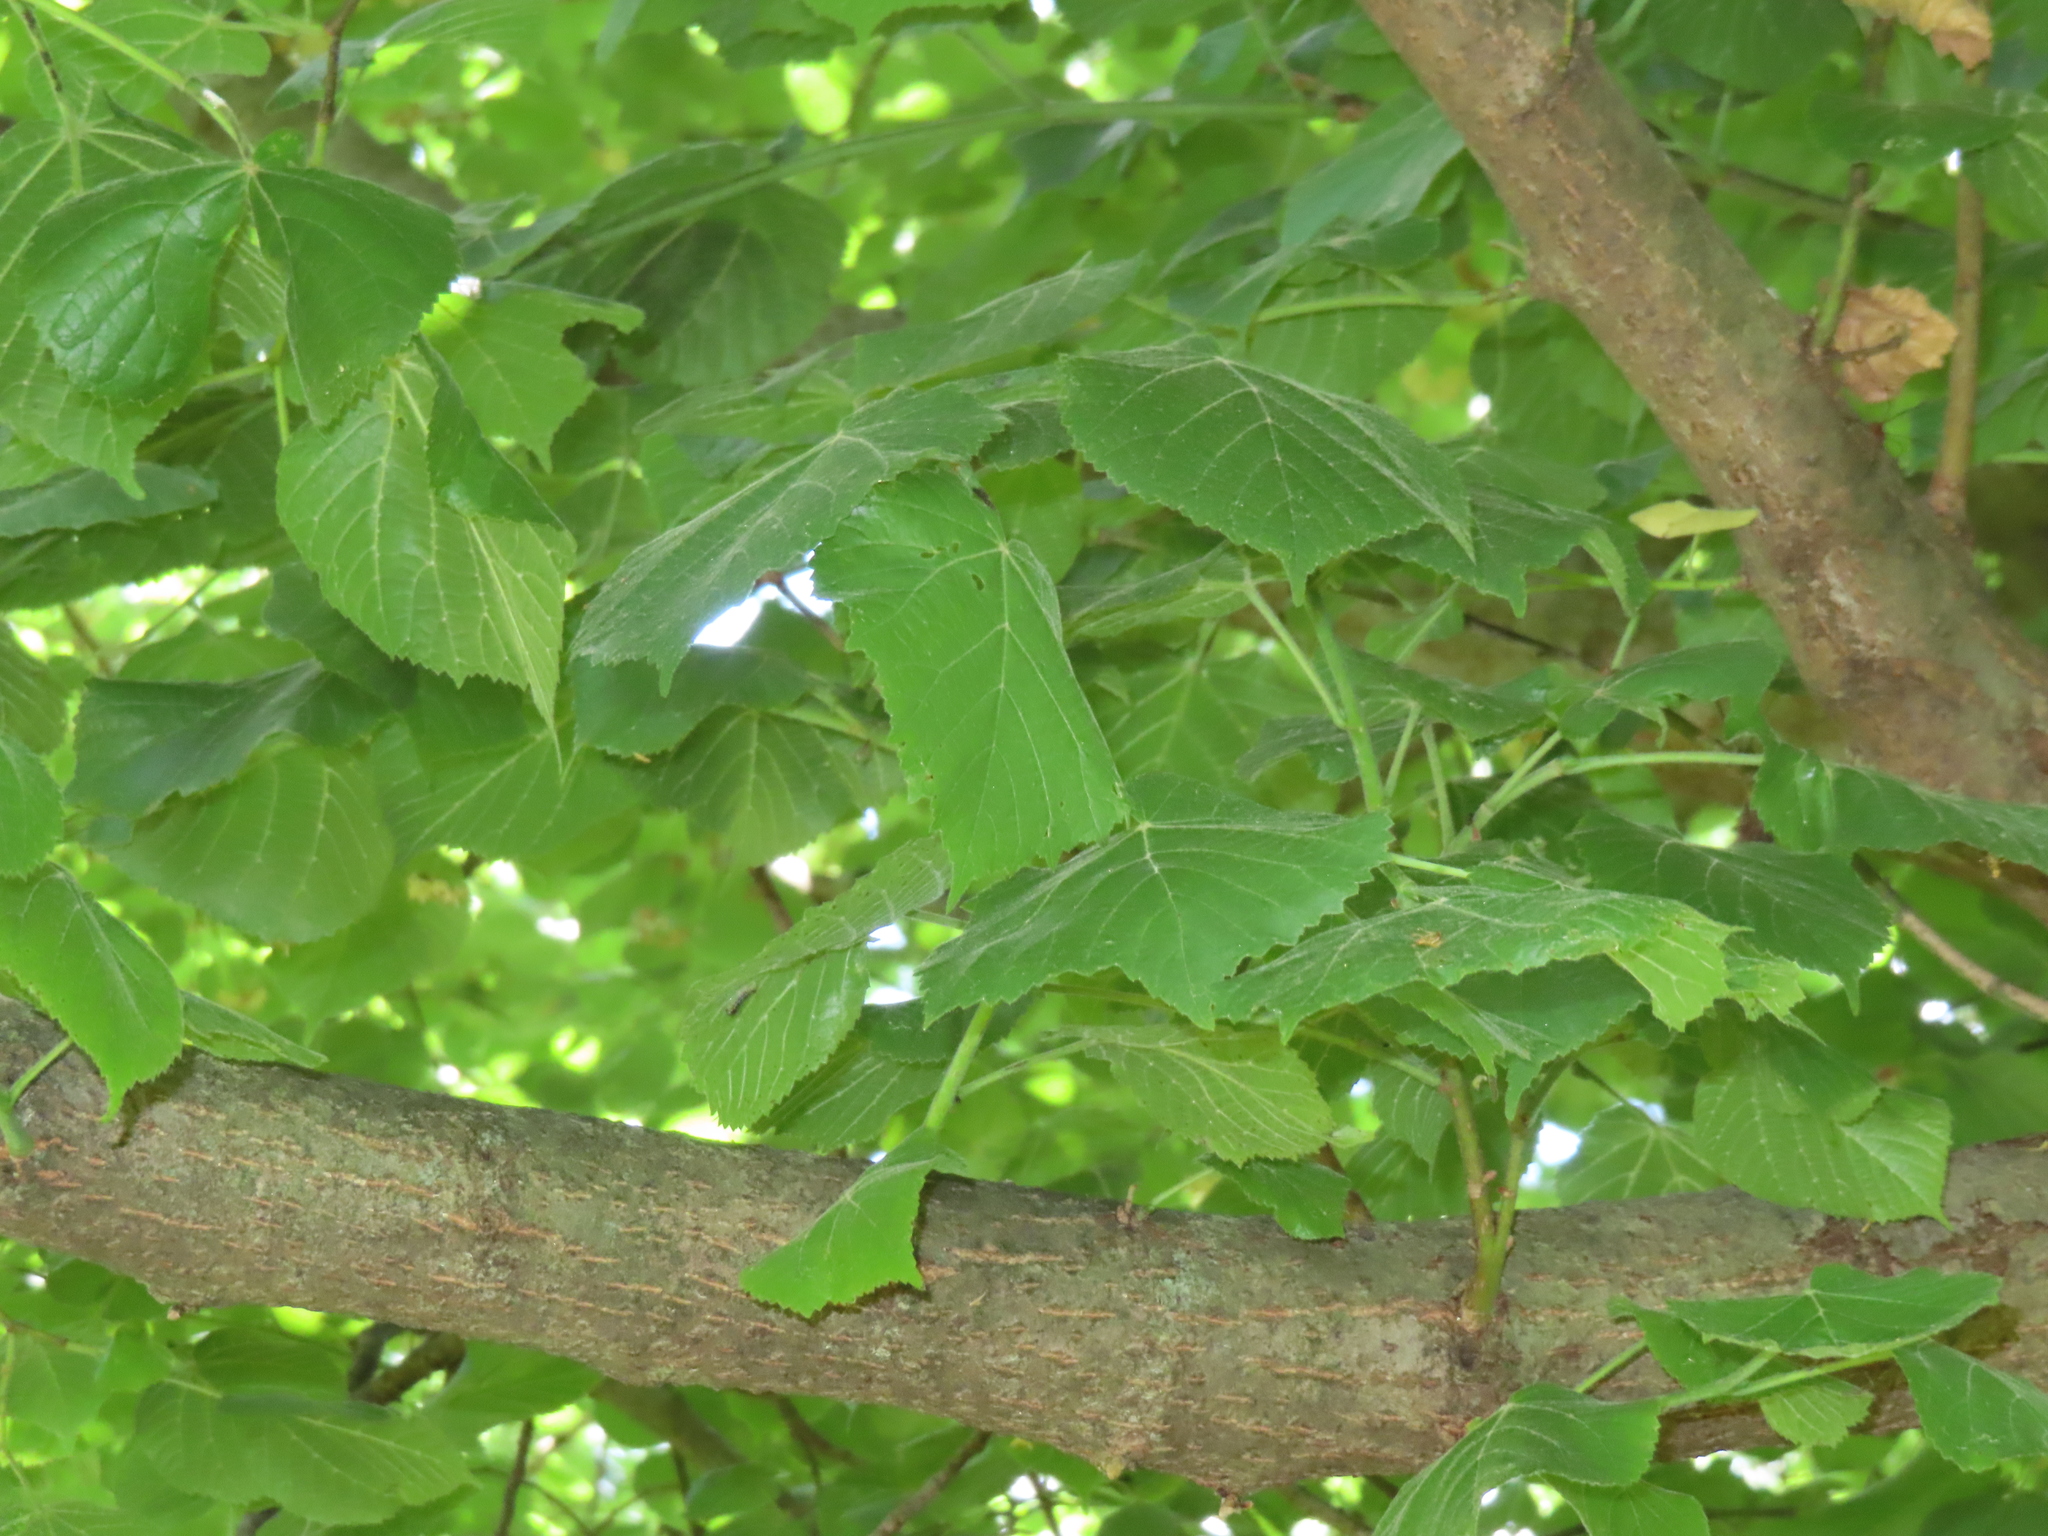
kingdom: Plantae
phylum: Tracheophyta
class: Magnoliopsida
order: Malvales
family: Malvaceae
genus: Tilia
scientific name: Tilia tomentosa
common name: Silver lime
